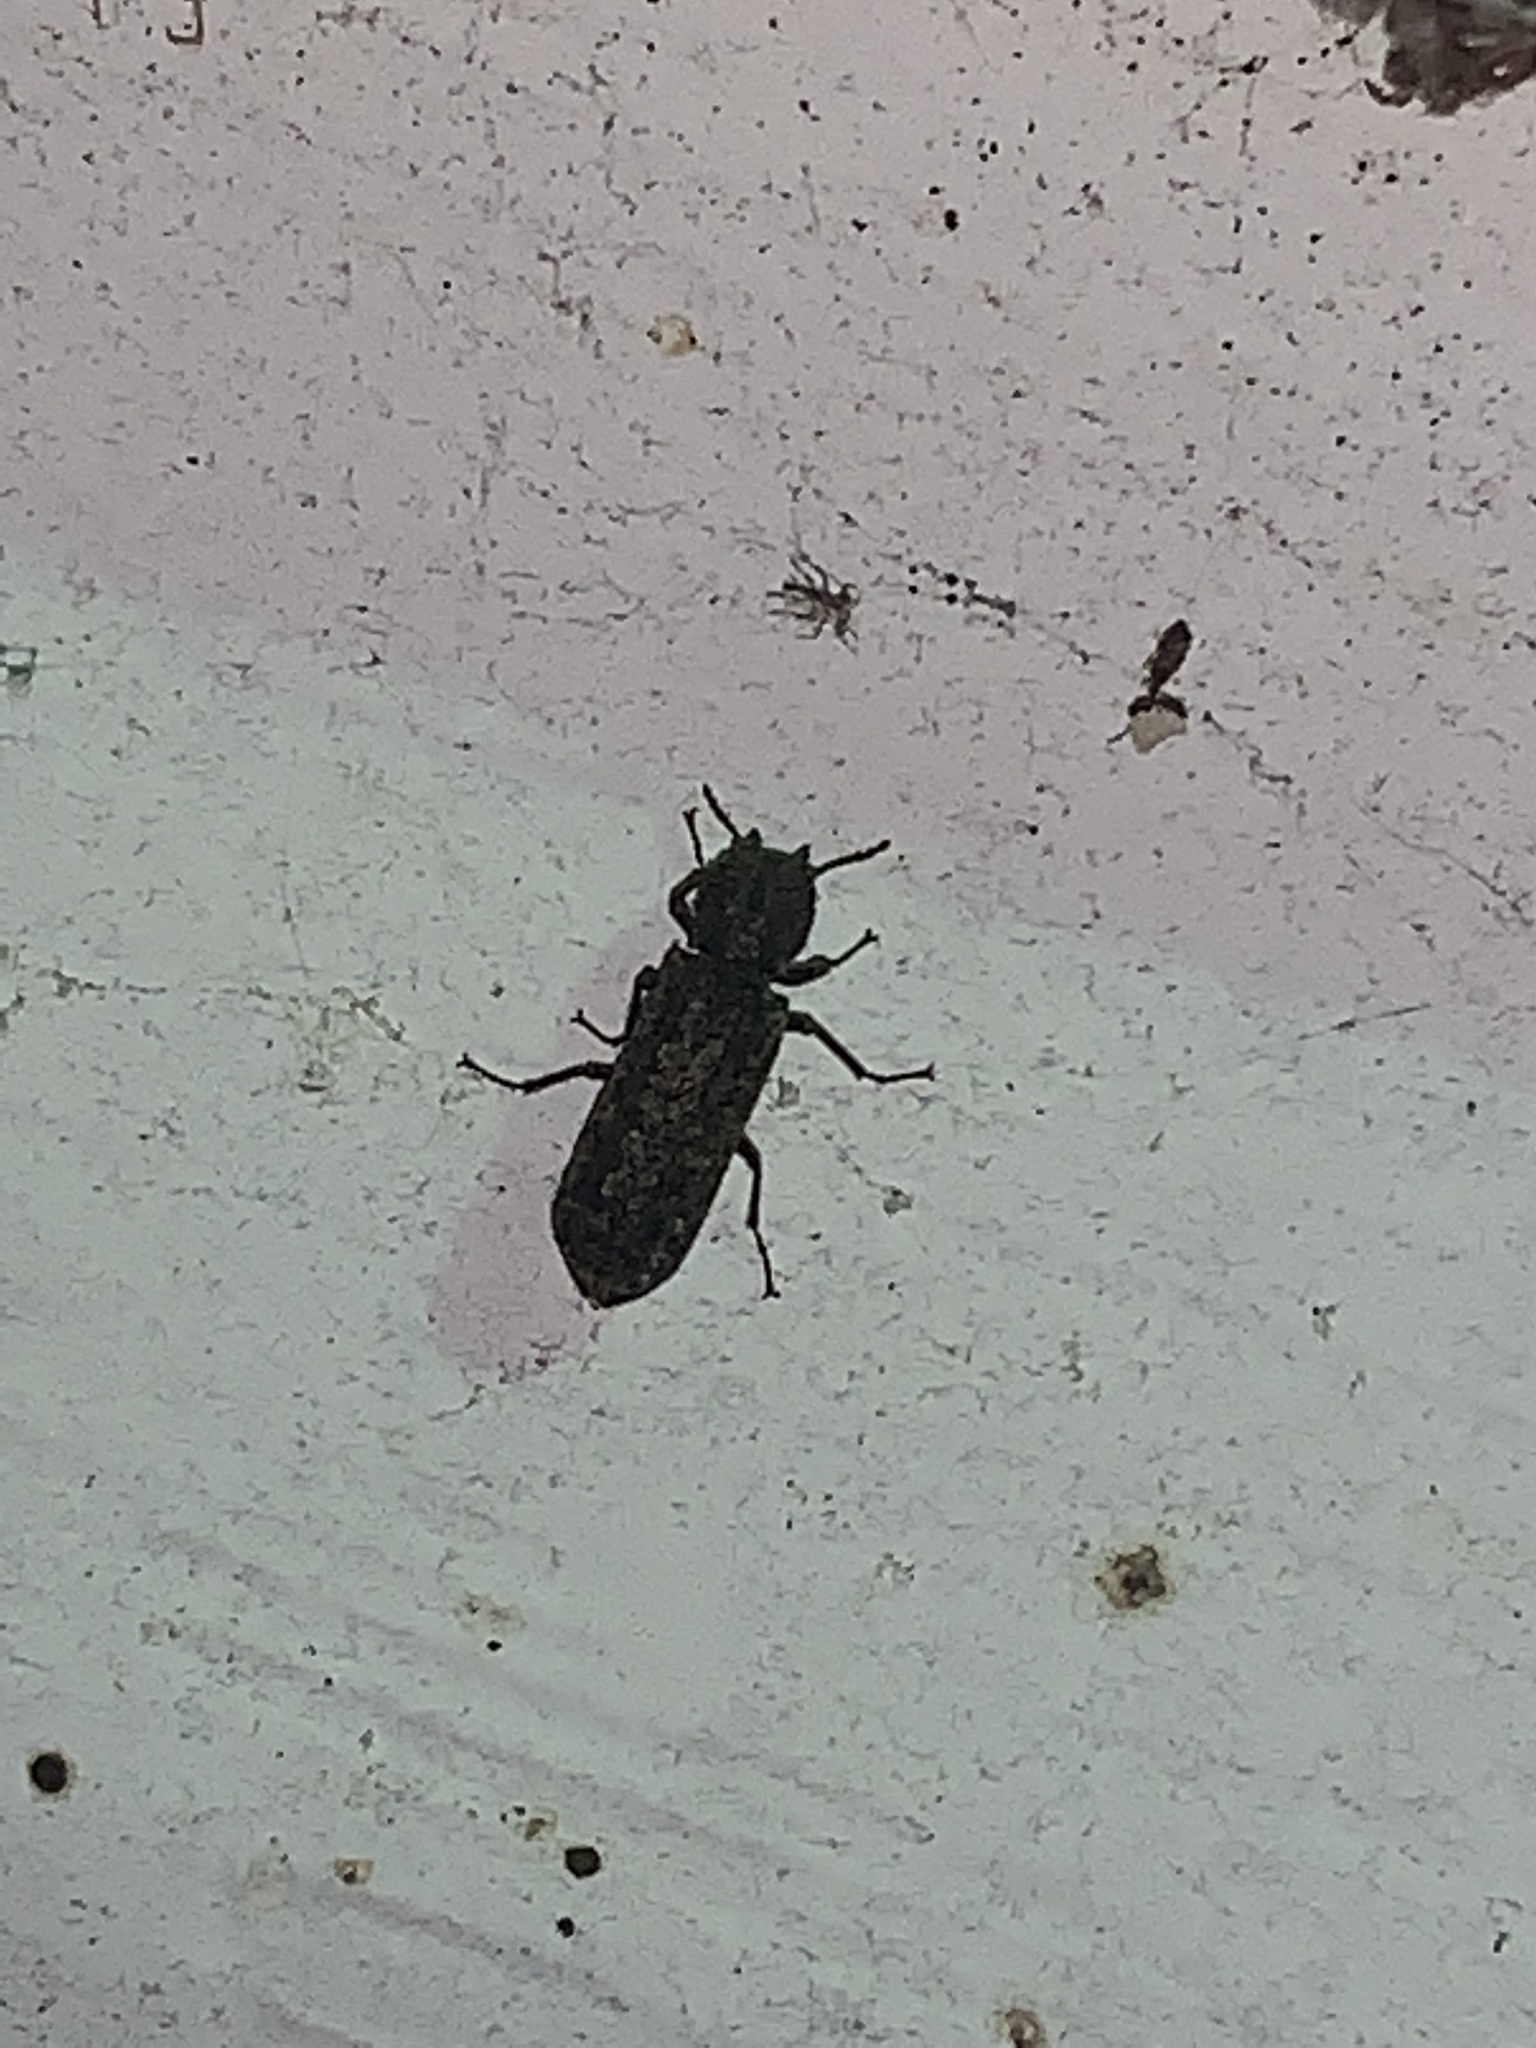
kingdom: Animalia
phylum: Arthropoda
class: Insecta
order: Coleoptera
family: Bostrichidae
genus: Lichenophanes
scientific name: Lichenophanes bicornis
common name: Two-horned powder-post beetle
